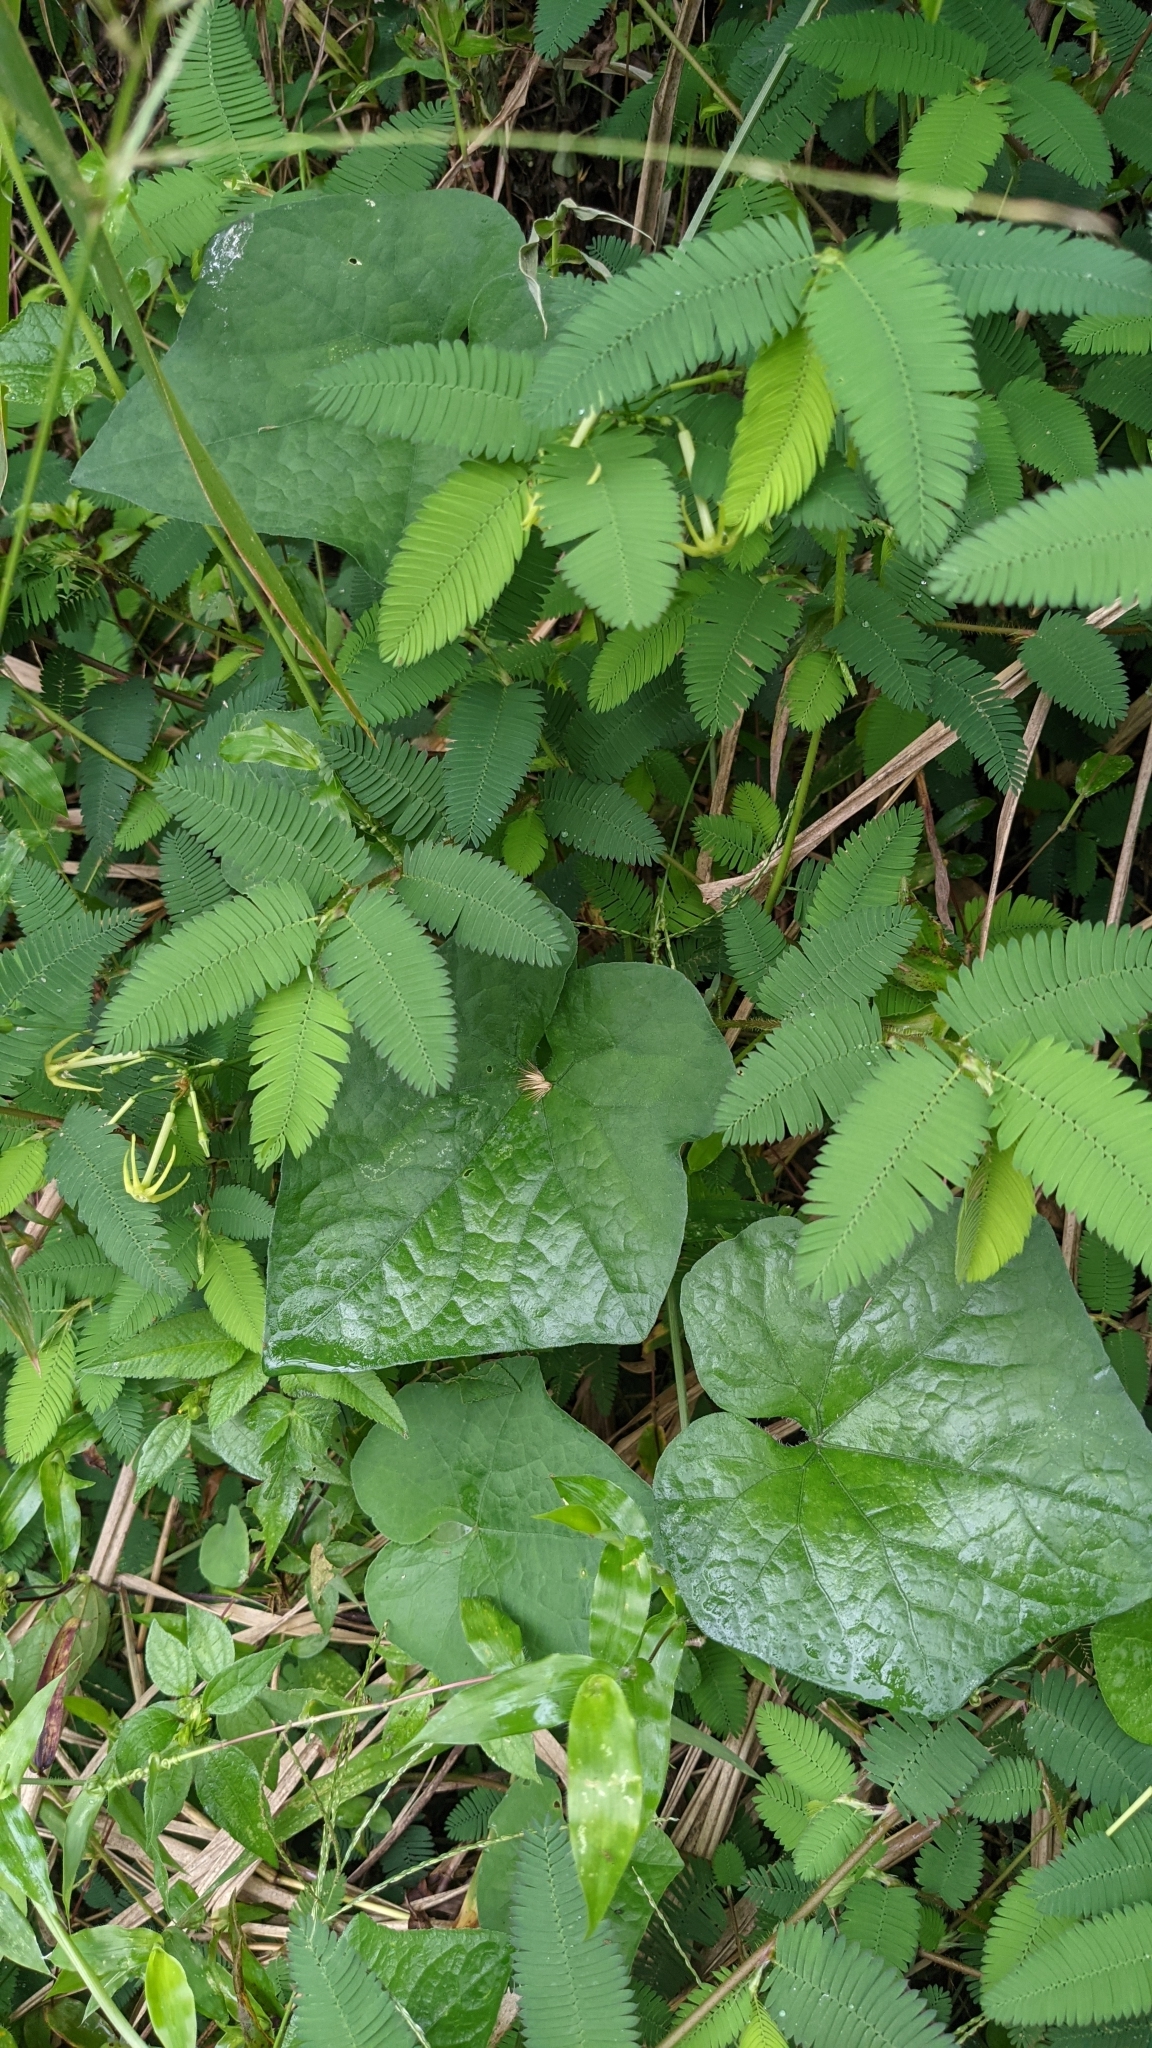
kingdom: Plantae
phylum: Tracheophyta
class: Magnoliopsida
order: Cucurbitales
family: Cucurbitaceae
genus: Cyclanthera
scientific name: Cyclanthera carthagenensis
